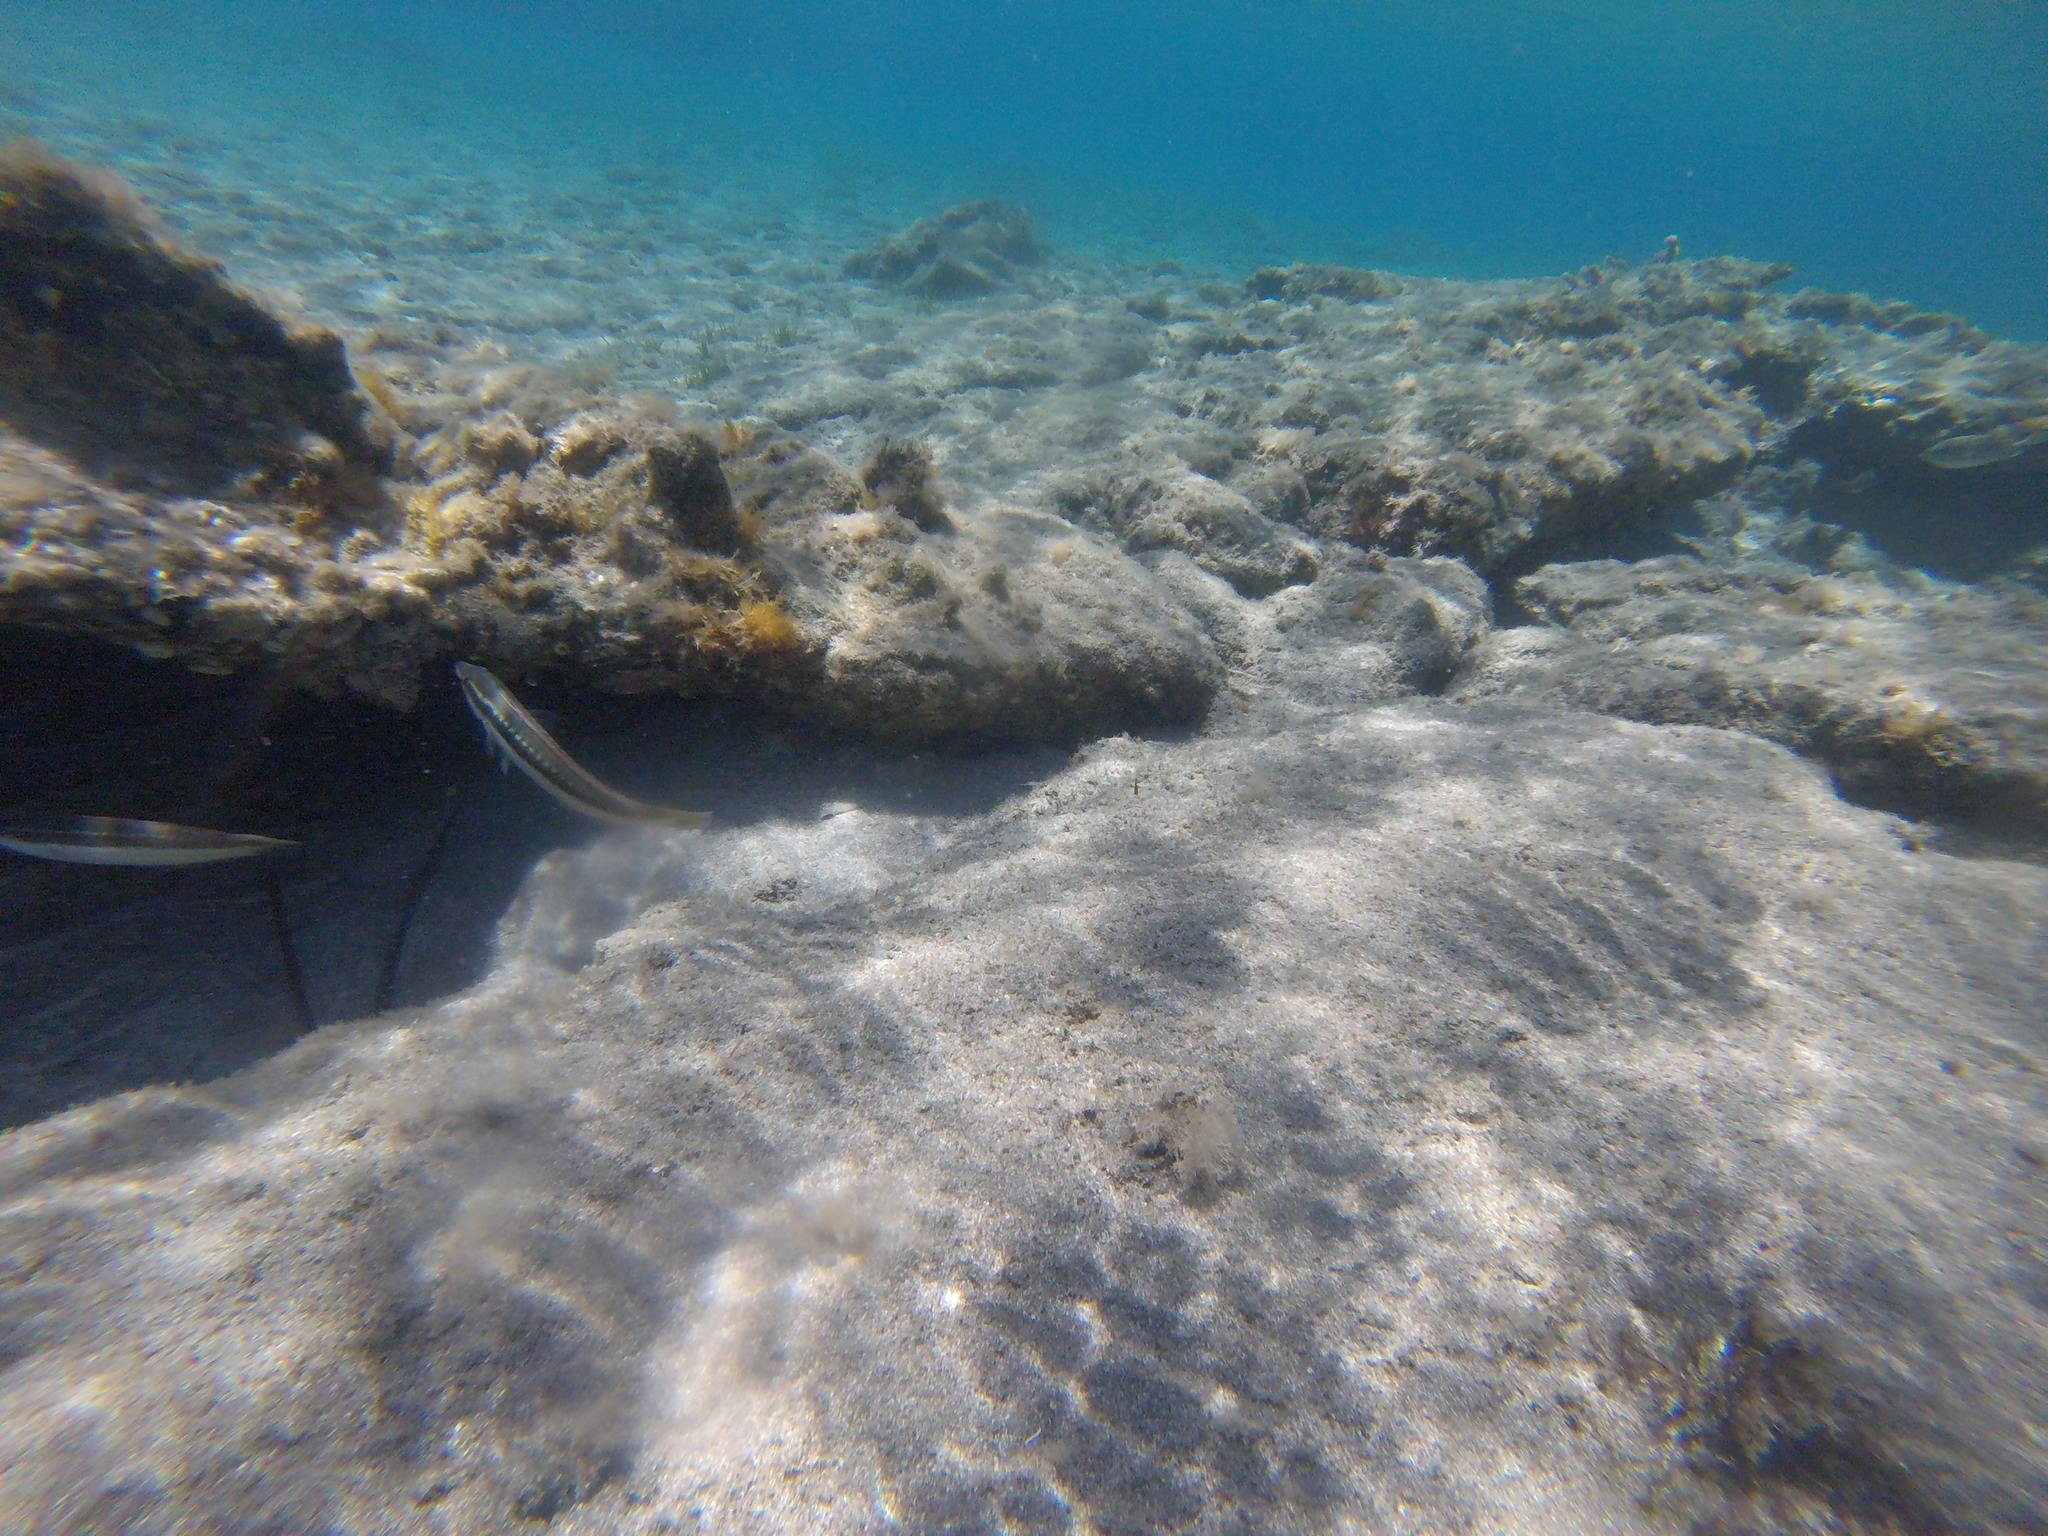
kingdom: Animalia
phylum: Chordata
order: Perciformes
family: Labridae
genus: Coris
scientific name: Coris julis
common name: Rainbow wrasse
